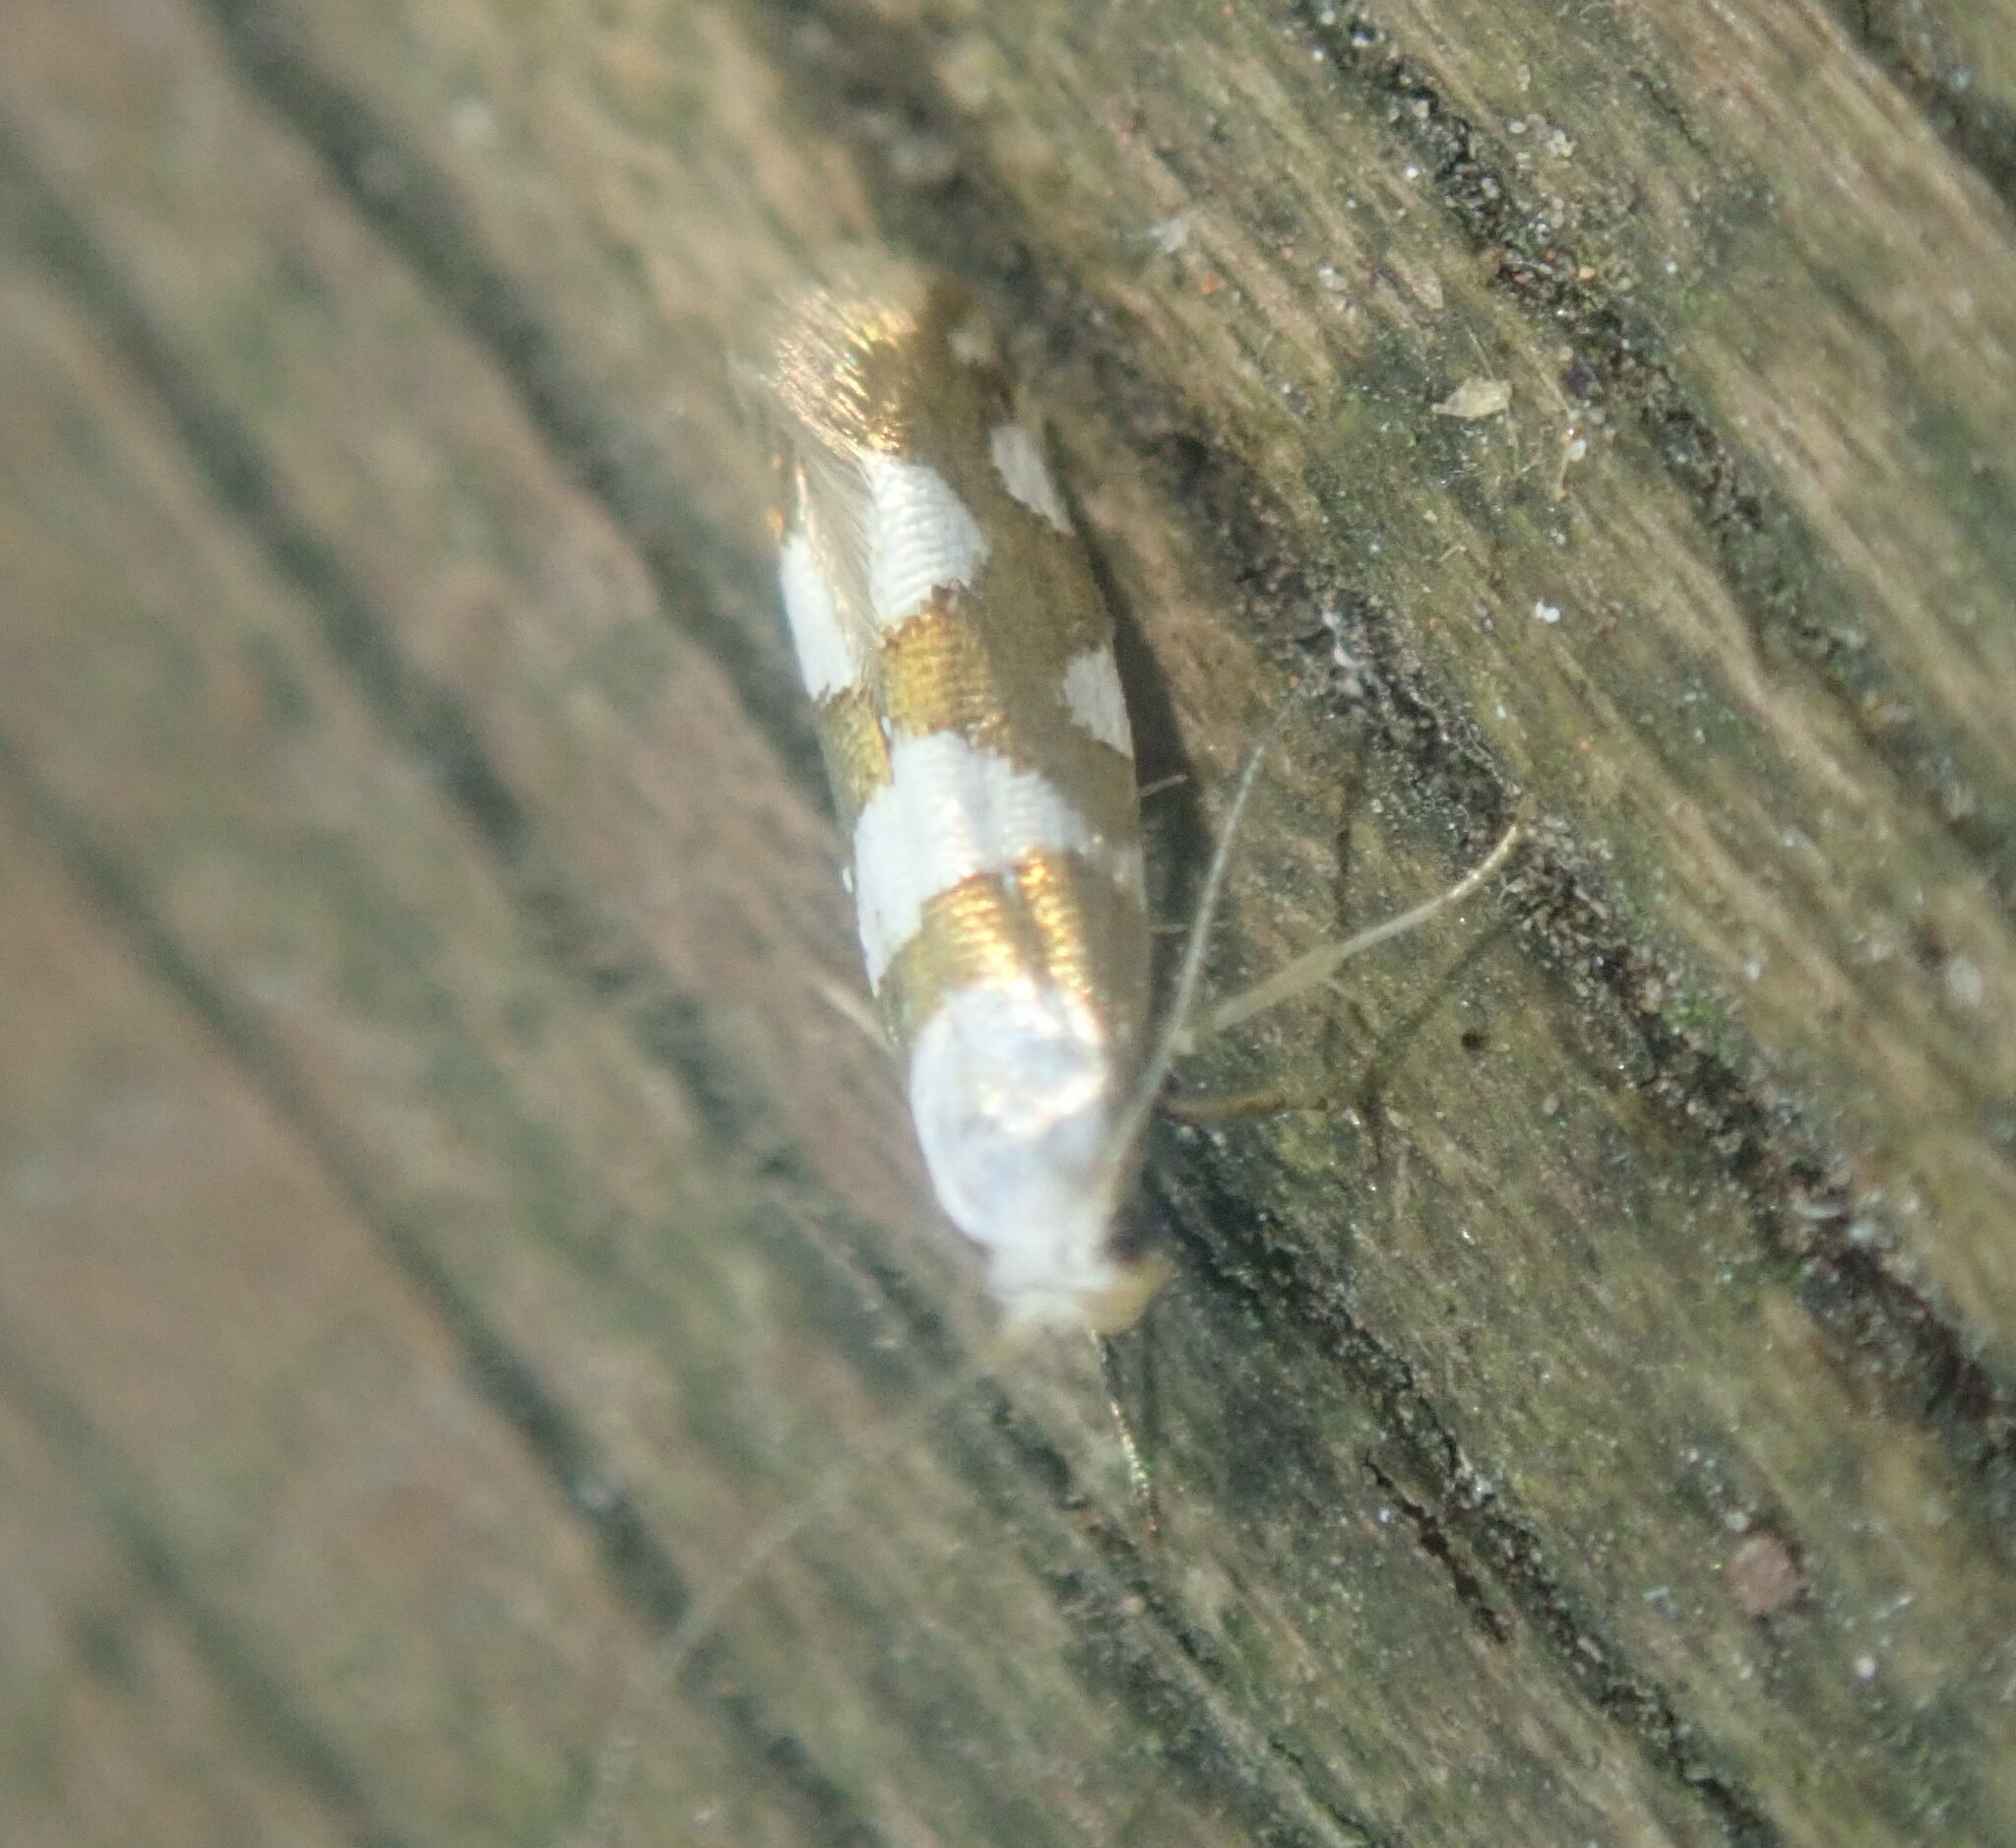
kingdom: Animalia
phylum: Arthropoda
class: Insecta
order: Lepidoptera
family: Argyresthiidae
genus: Argyresthia
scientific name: Argyresthia brockeella
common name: Gold-ribbon argent
